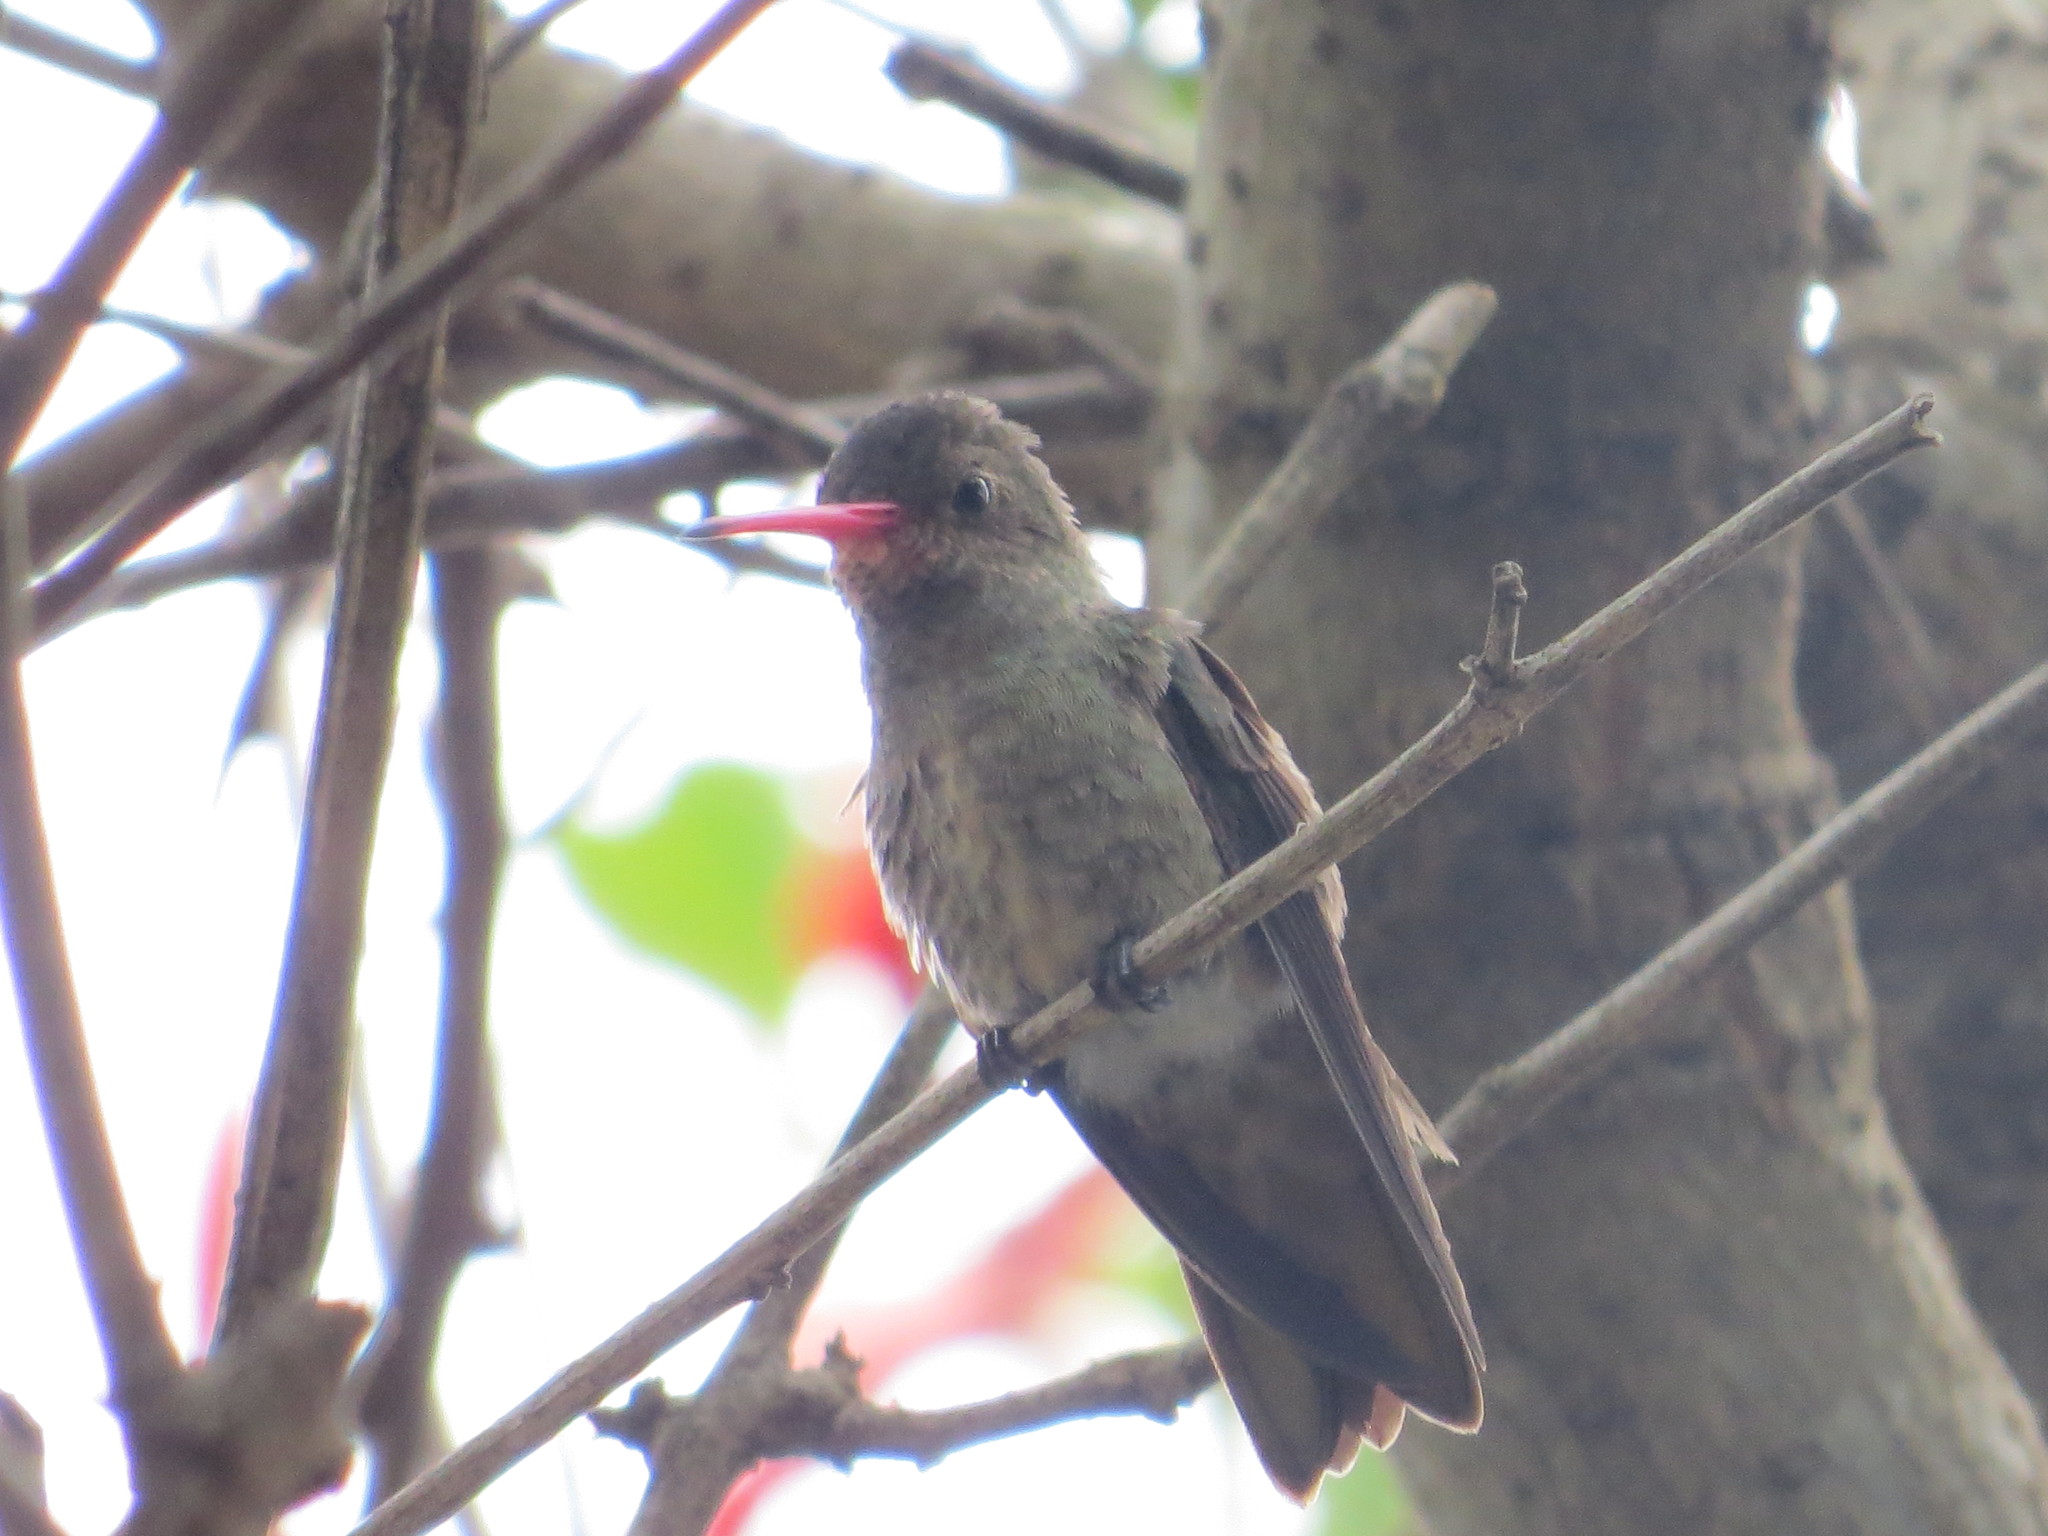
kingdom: Animalia
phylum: Chordata
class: Aves
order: Apodiformes
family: Trochilidae
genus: Hylocharis
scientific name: Hylocharis chrysura
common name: Gilded sapphire
